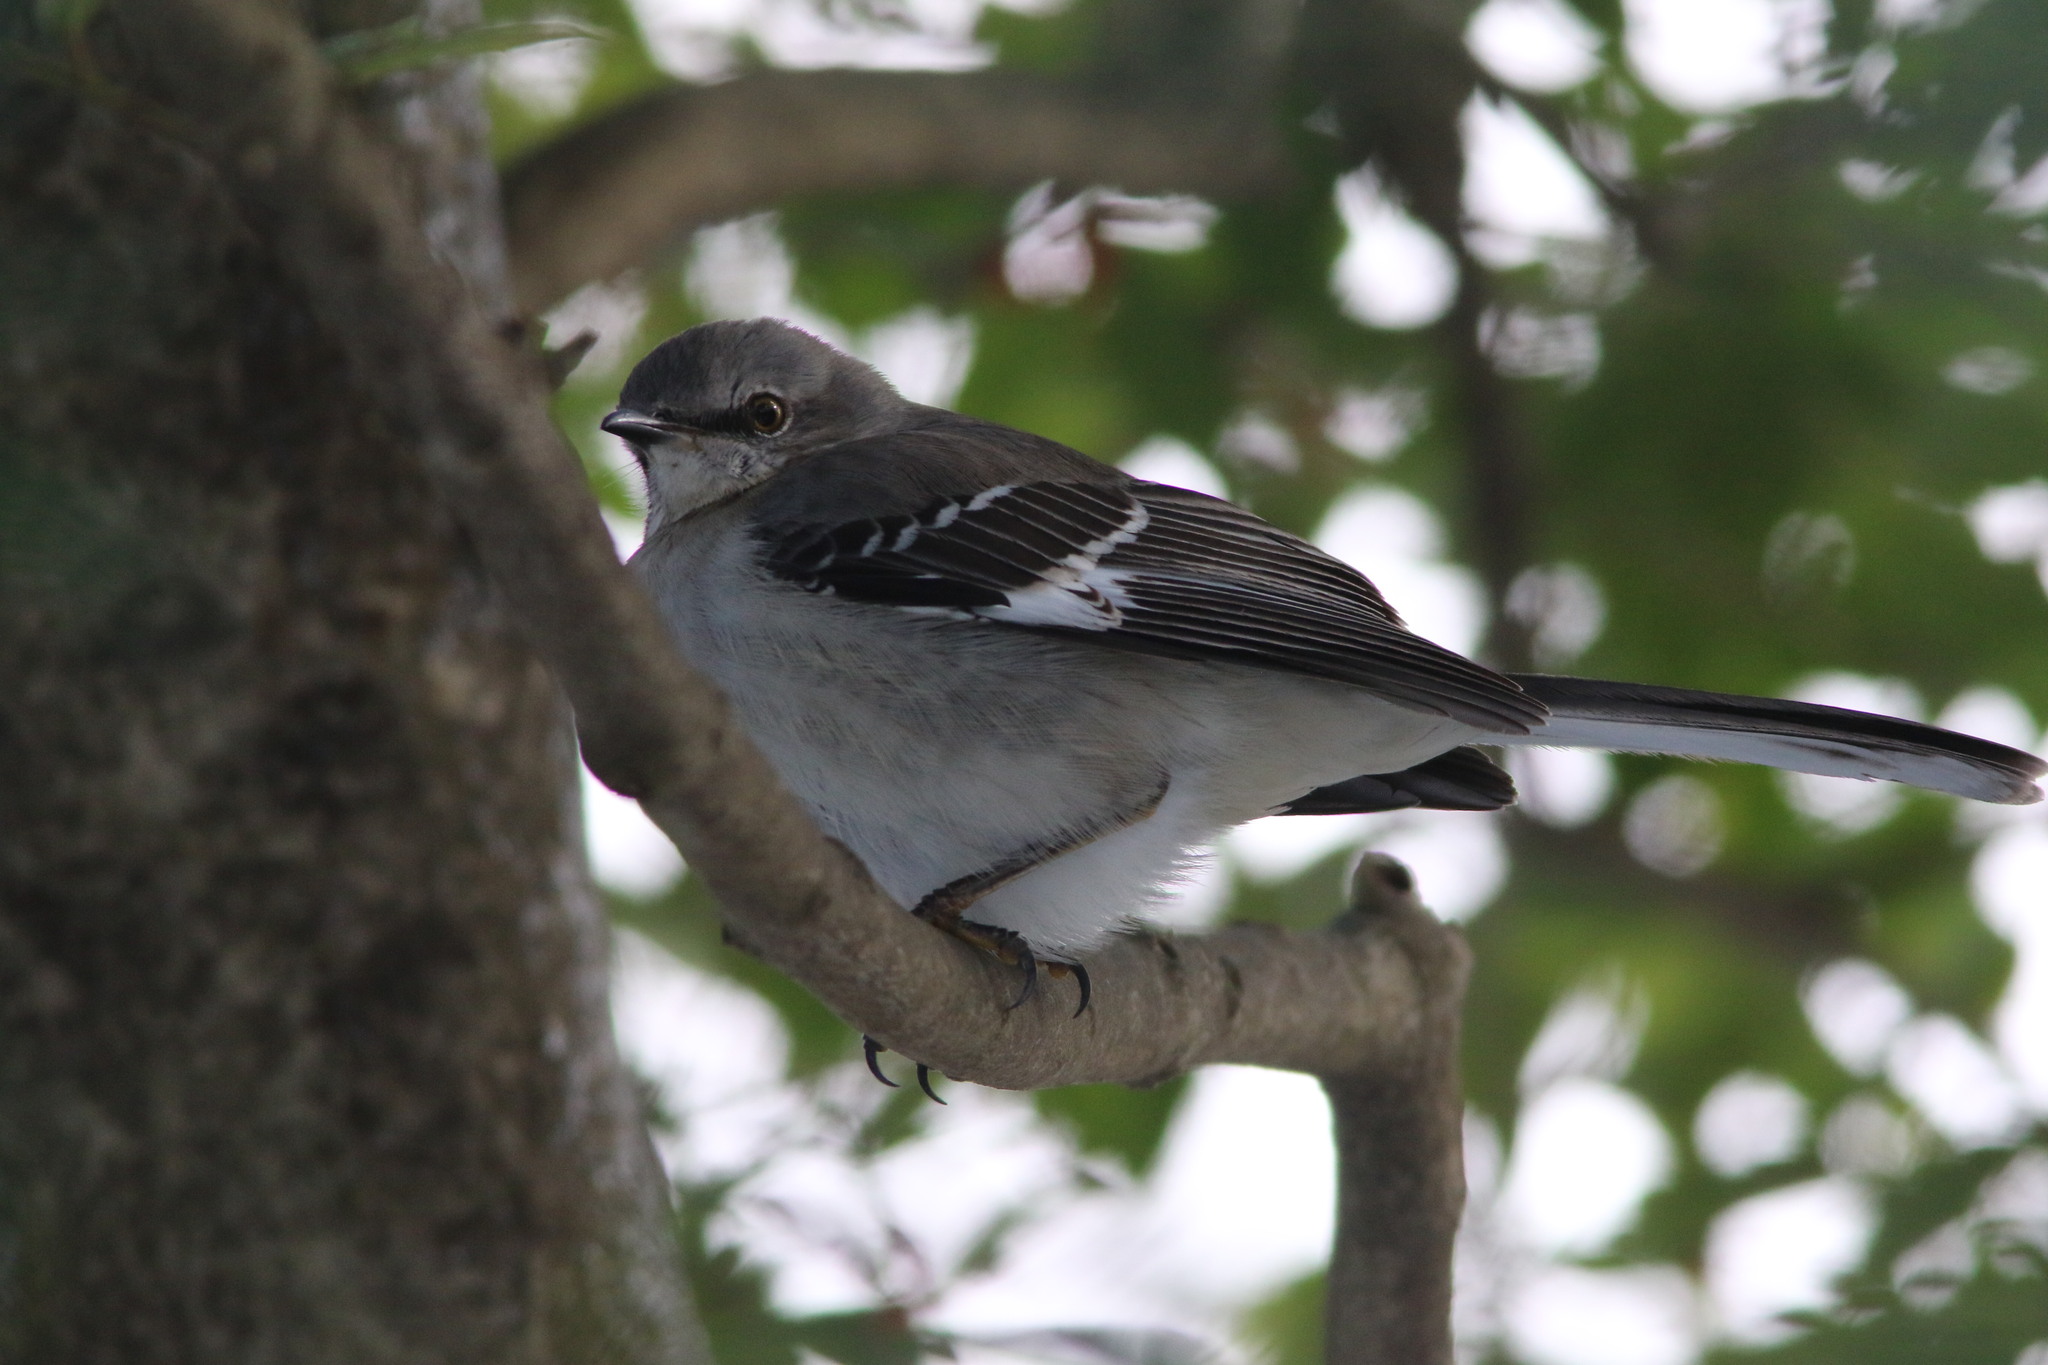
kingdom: Animalia
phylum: Chordata
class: Aves
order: Passeriformes
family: Mimidae
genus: Mimus
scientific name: Mimus polyglottos
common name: Northern mockingbird
